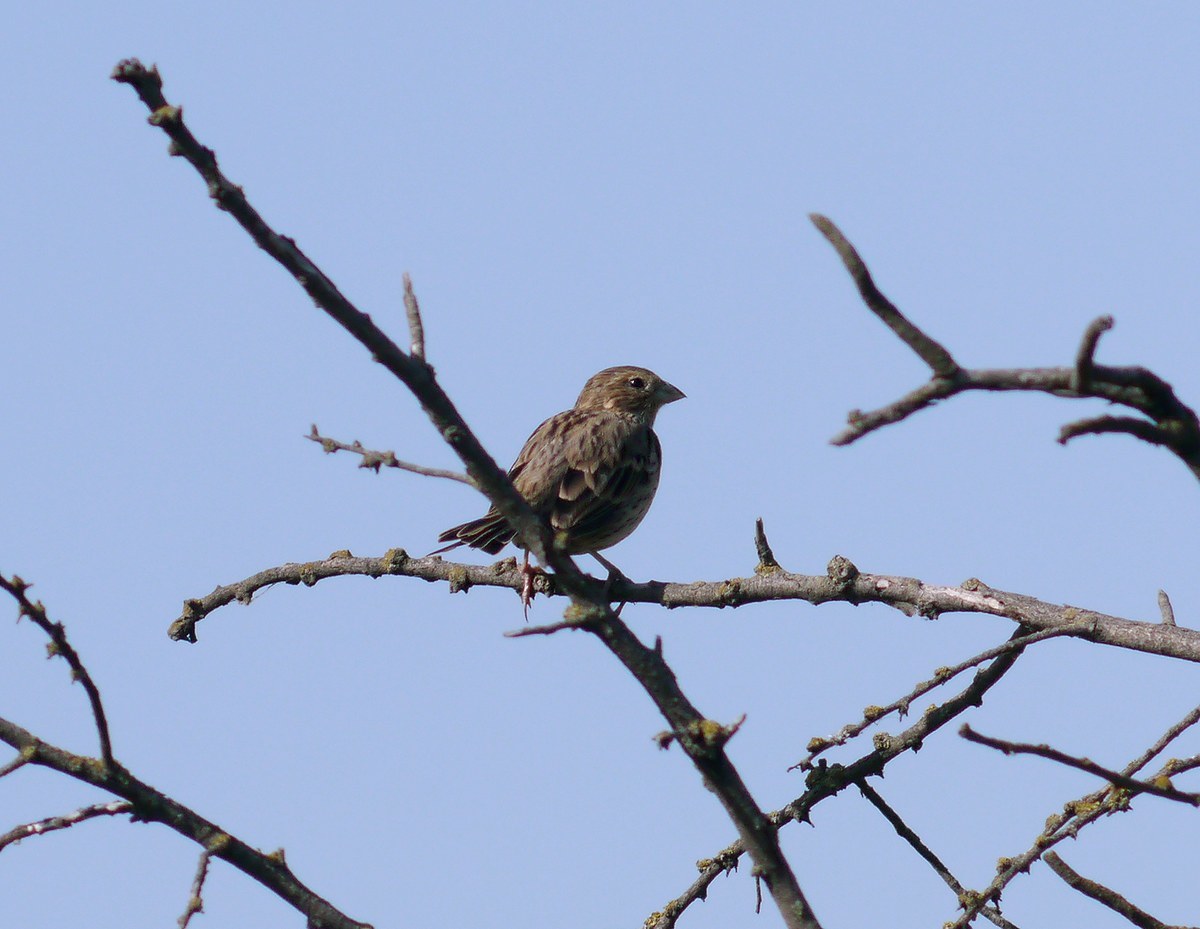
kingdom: Animalia
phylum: Chordata
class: Aves
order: Passeriformes
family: Emberizidae
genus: Emberiza
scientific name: Emberiza calandra
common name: Corn bunting
